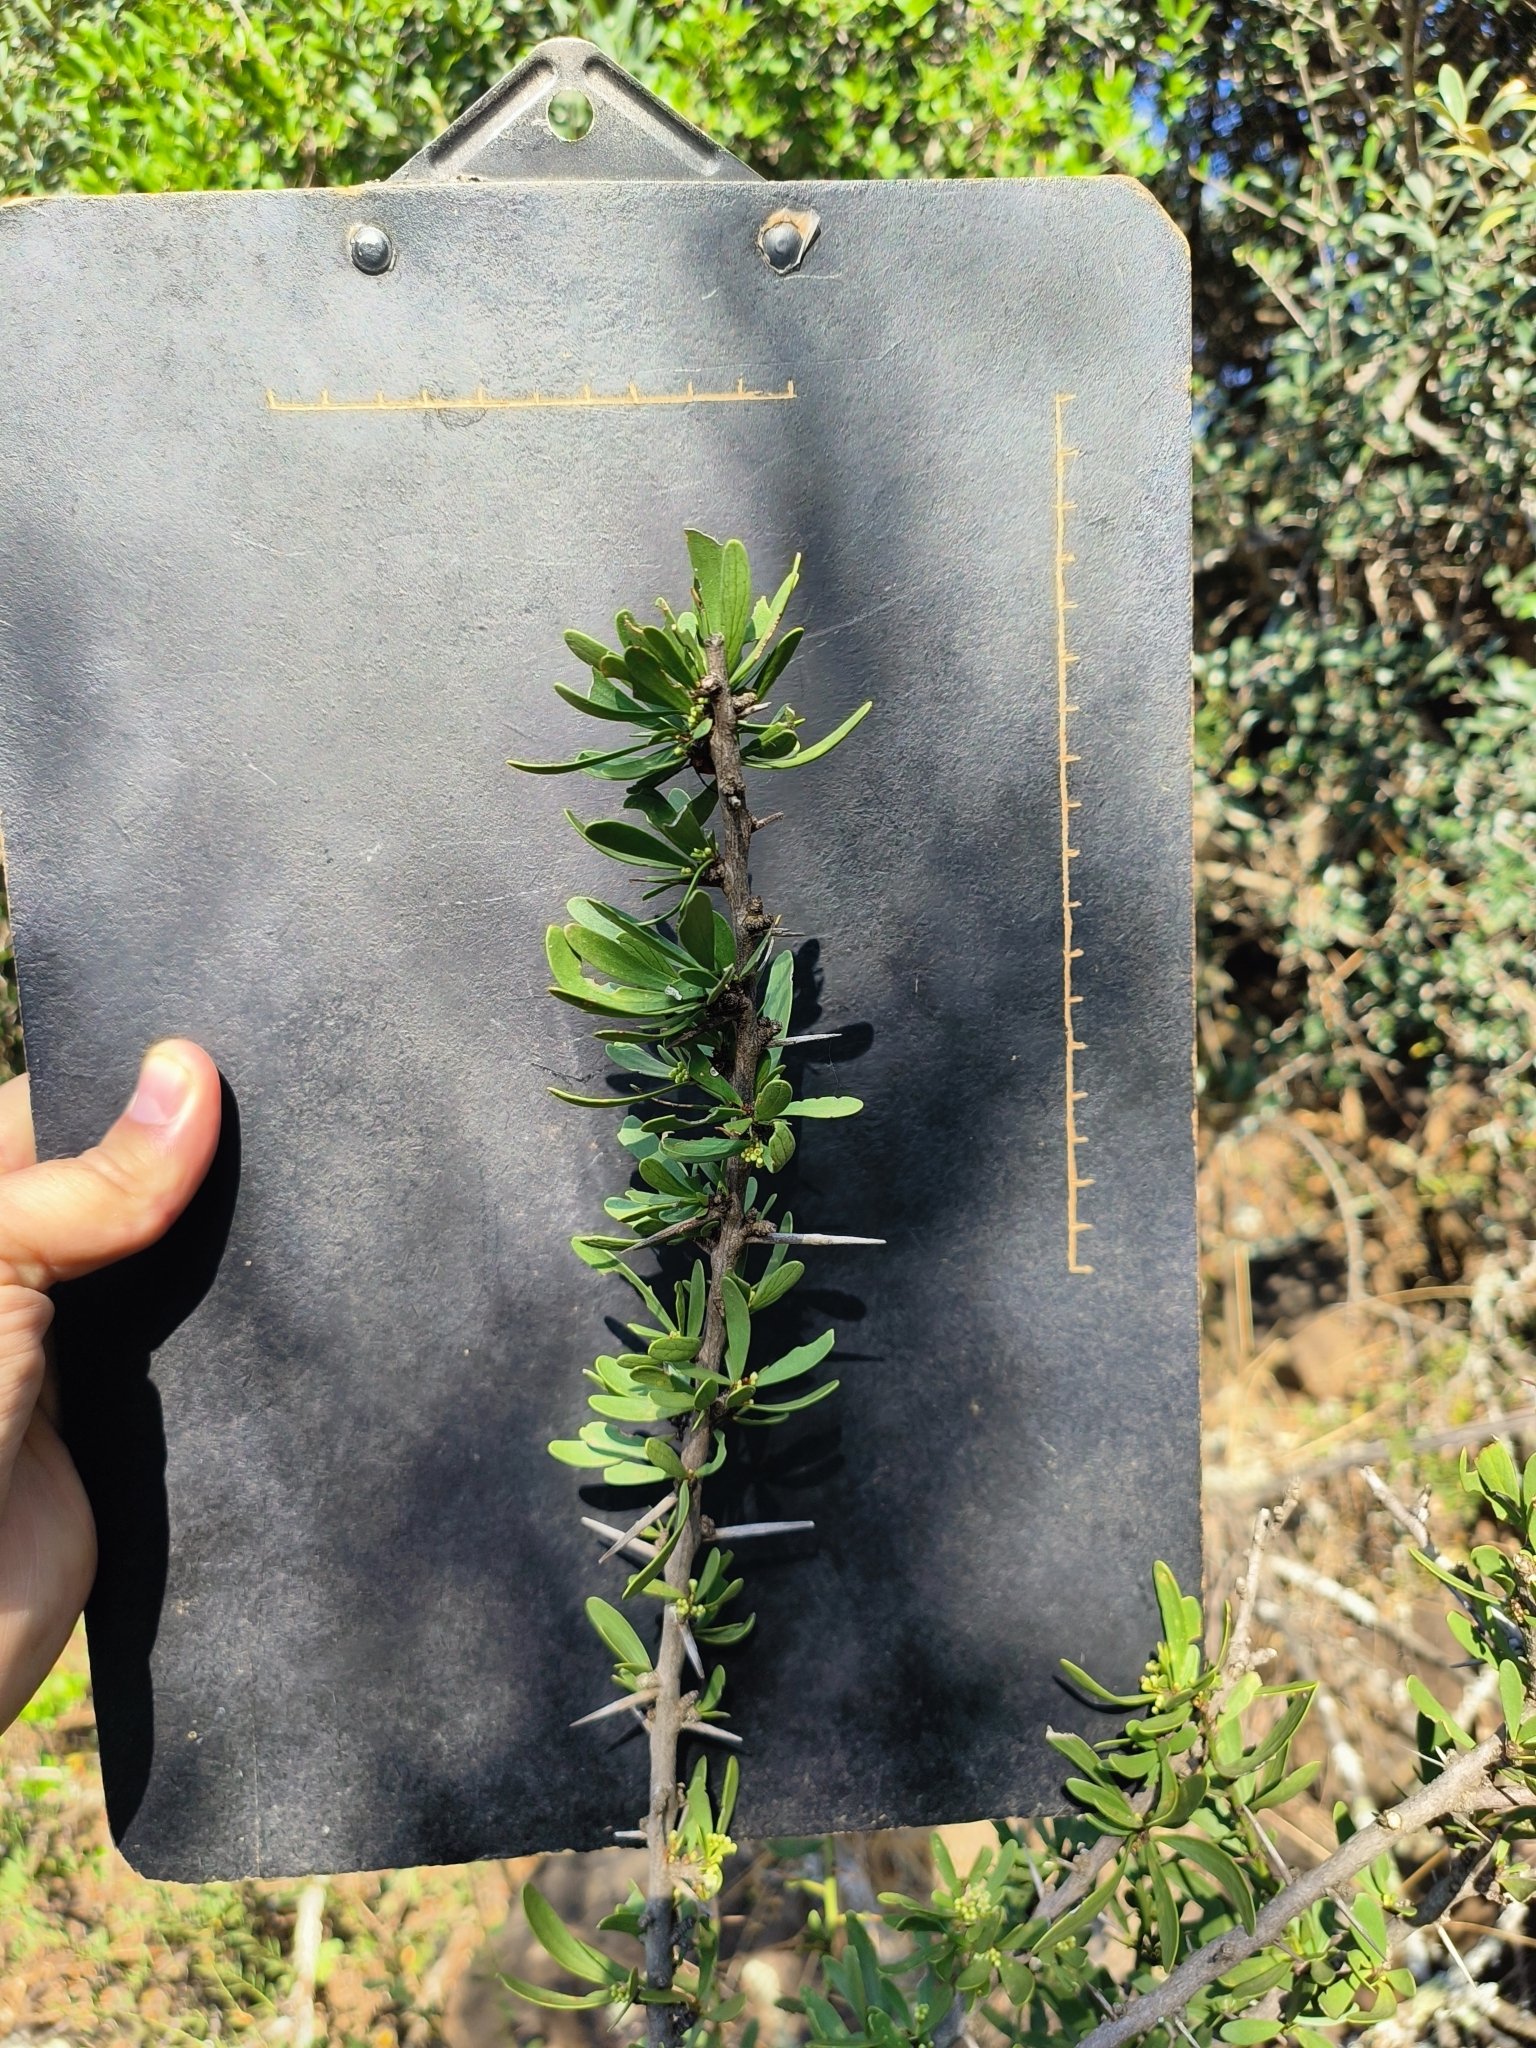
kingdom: Plantae
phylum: Tracheophyta
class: Magnoliopsida
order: Celastrales
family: Celastraceae
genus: Gymnosporia
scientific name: Gymnosporia buxifolia
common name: Common spike-thorn
